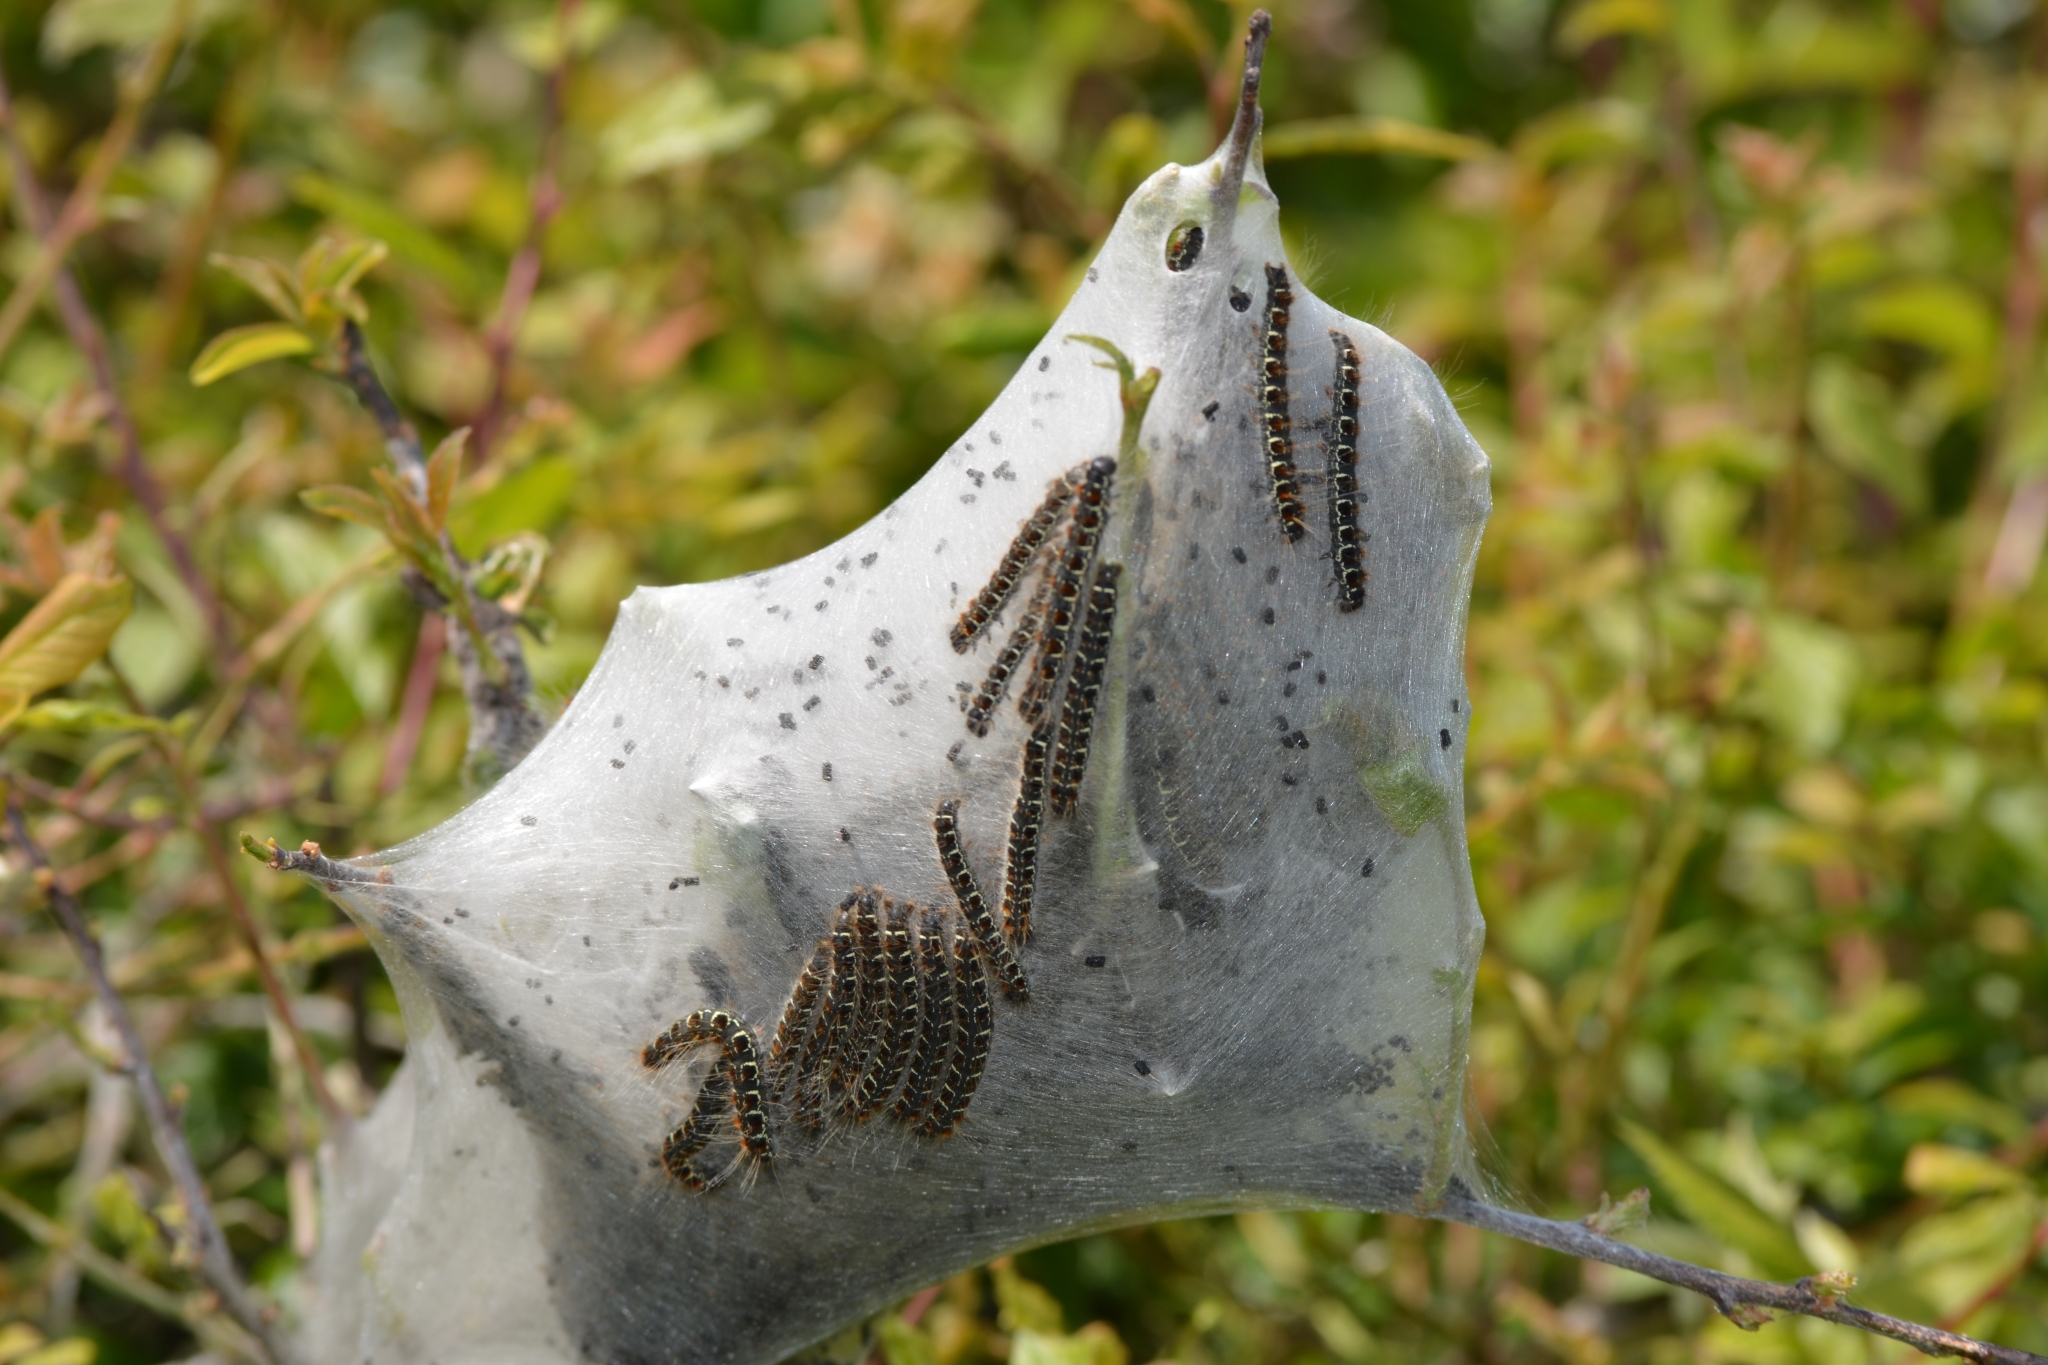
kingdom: Animalia
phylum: Arthropoda
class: Insecta
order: Lepidoptera
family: Lasiocampidae
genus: Eriogaster
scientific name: Eriogaster lanestris
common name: Small eggar
